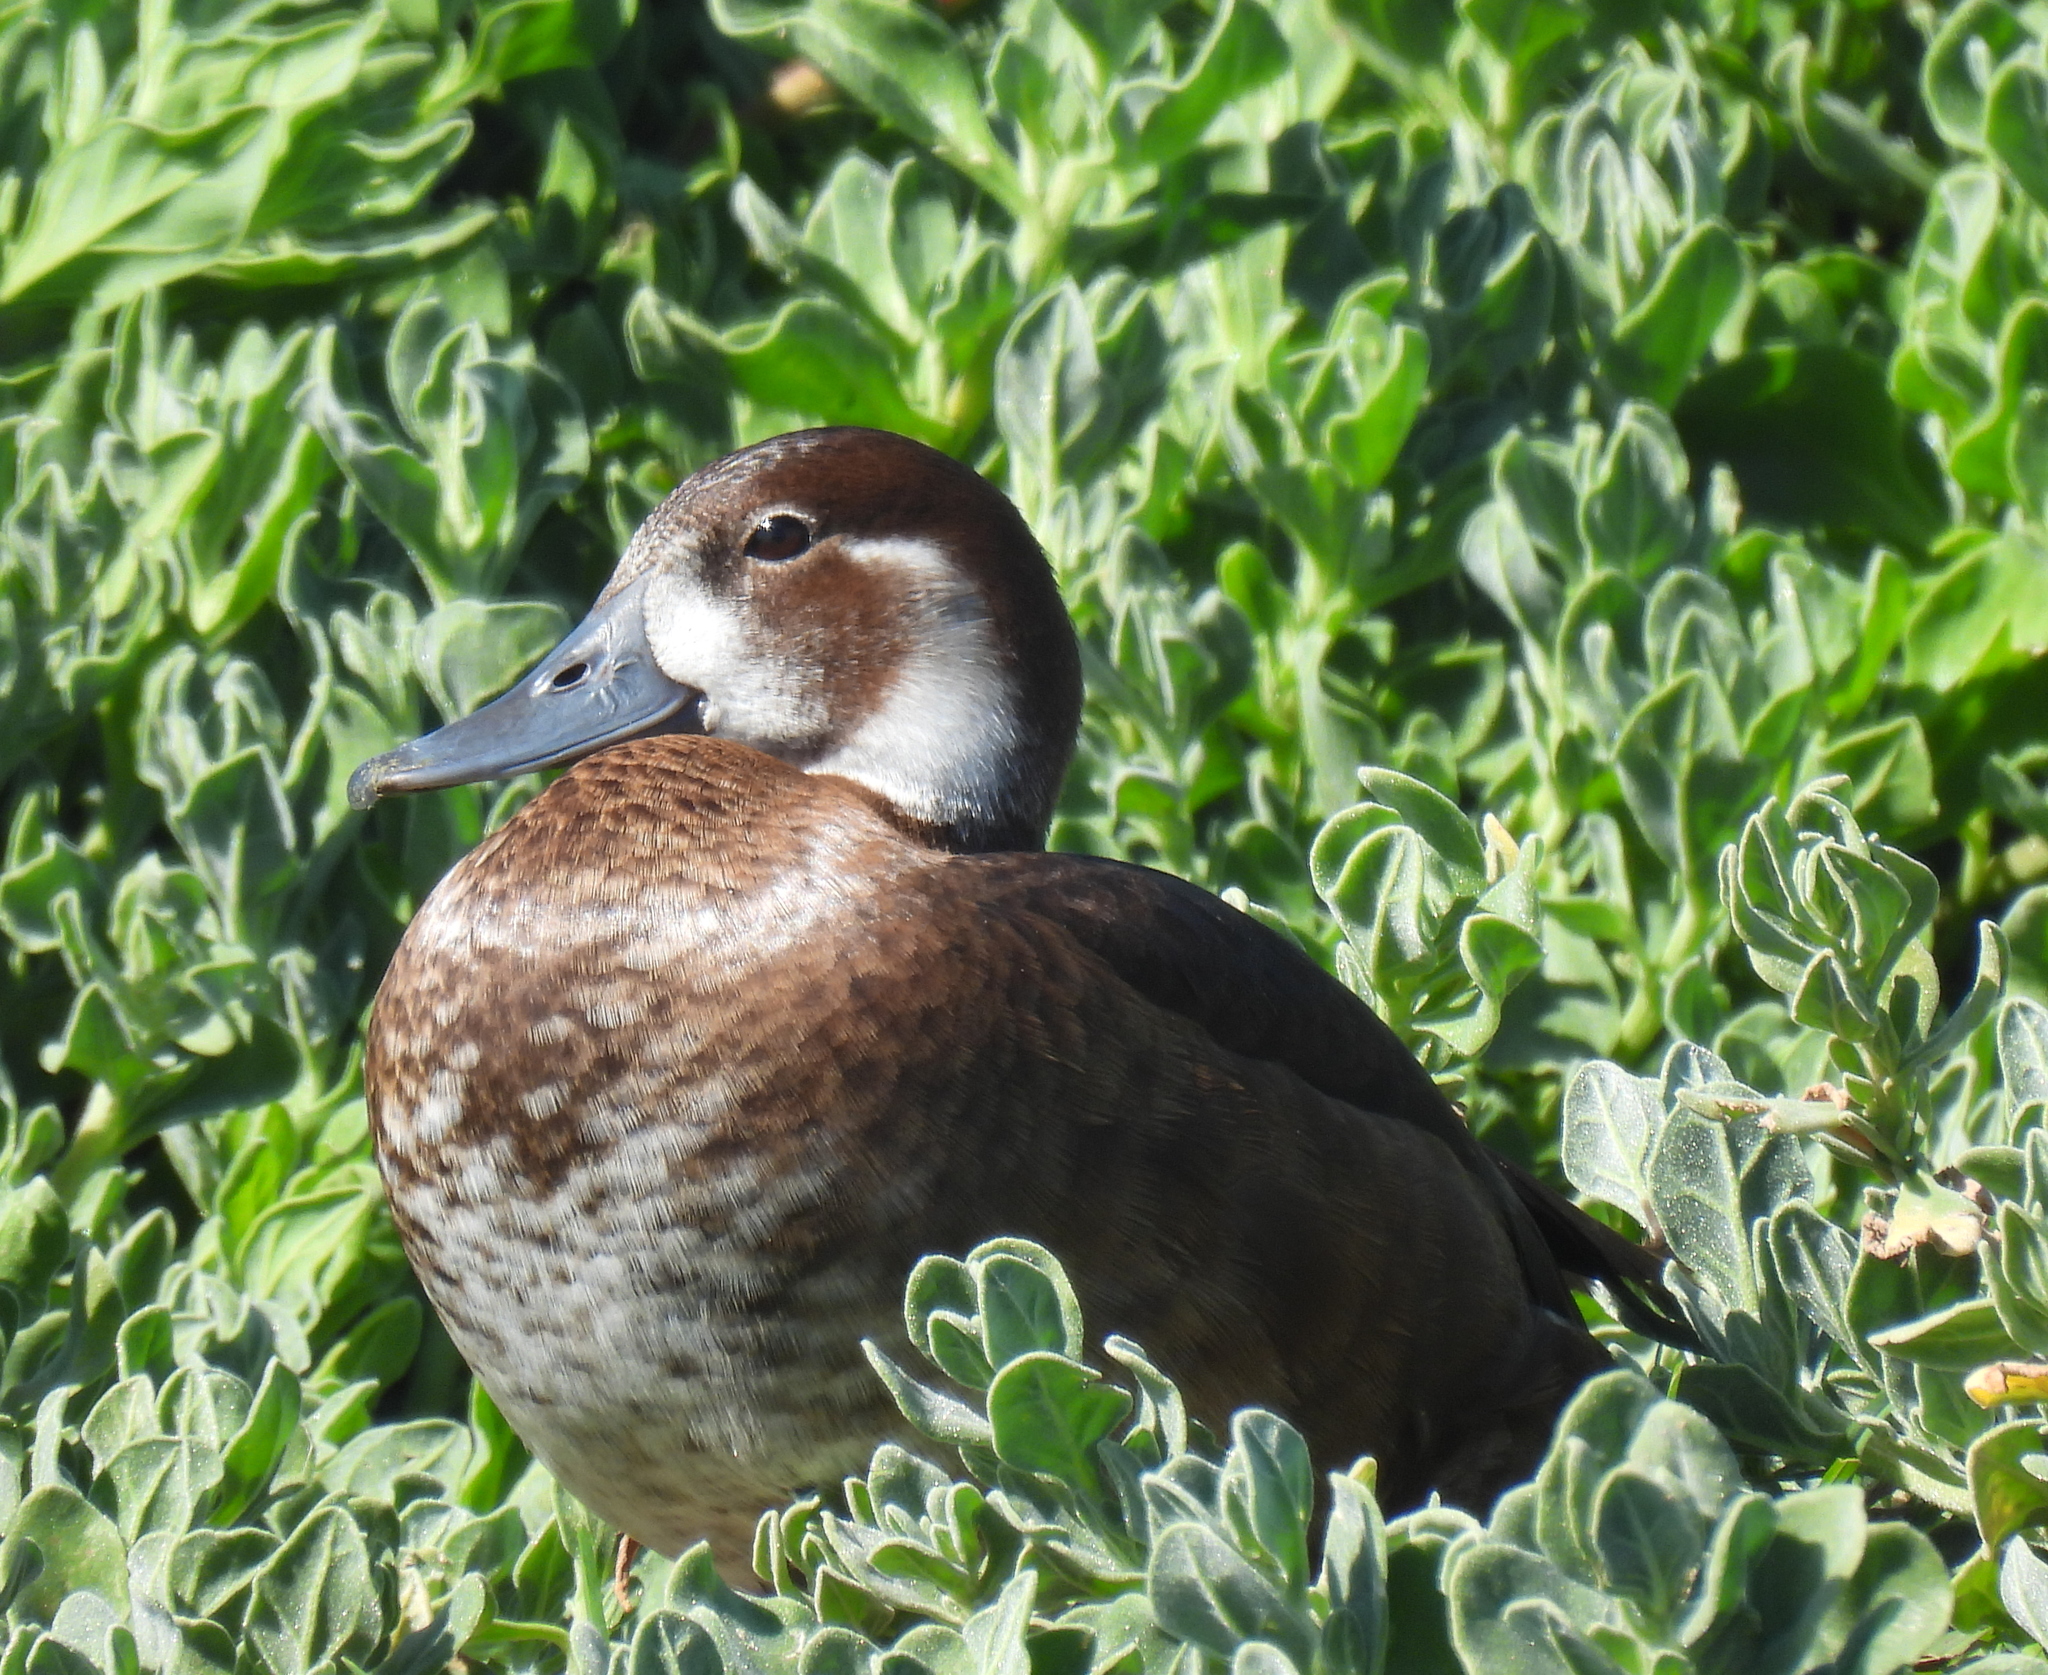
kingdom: Animalia
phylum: Chordata
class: Aves
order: Anseriformes
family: Anatidae
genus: Netta
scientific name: Netta erythrophthalma
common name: Southern pochard
